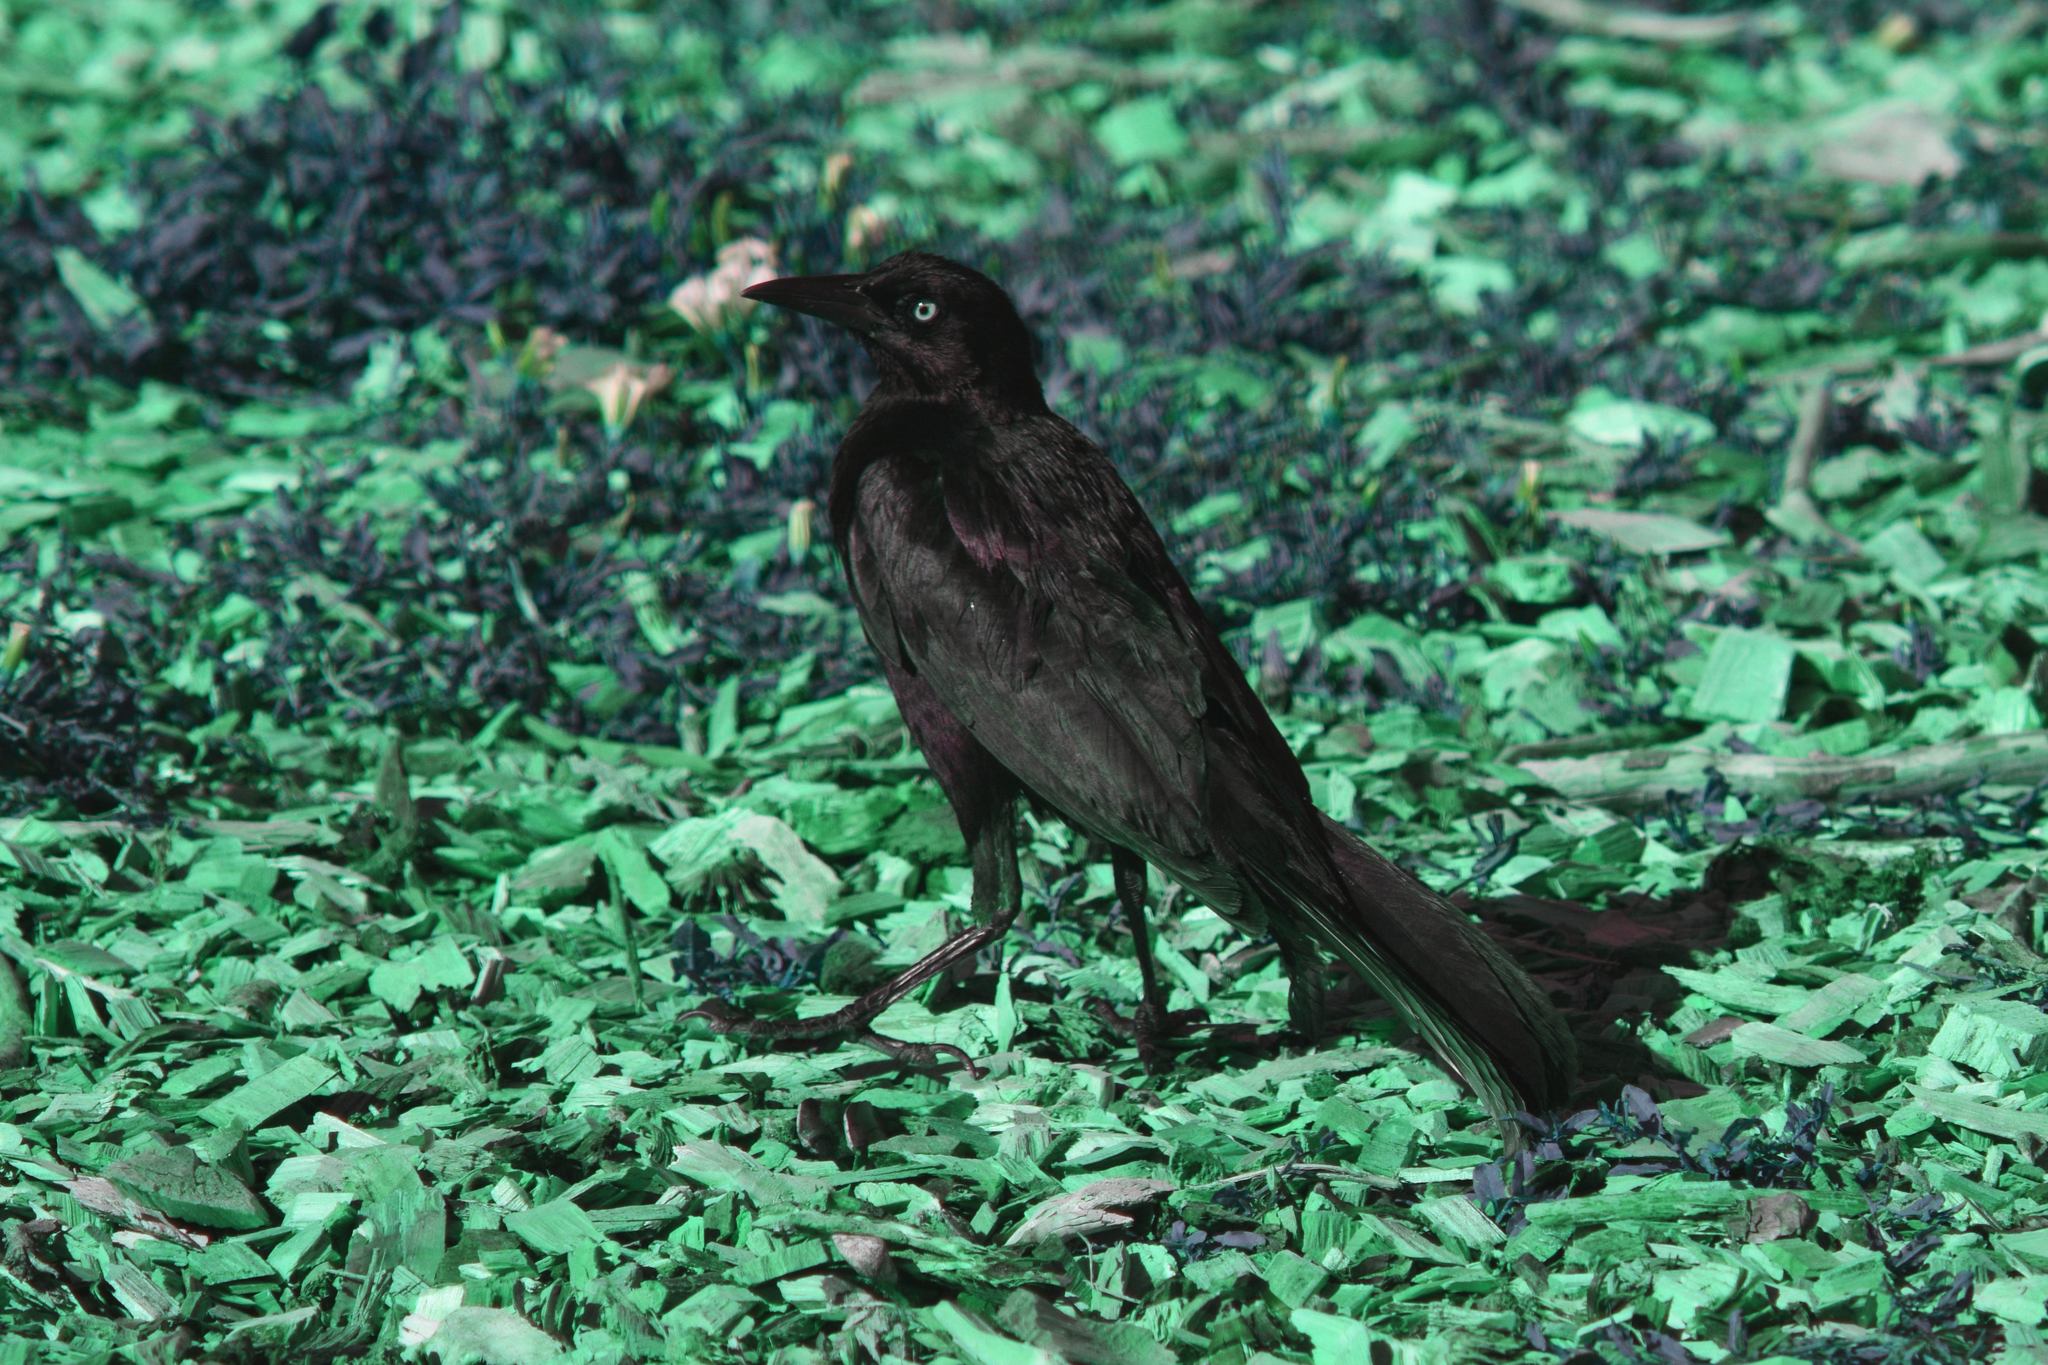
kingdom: Animalia
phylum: Chordata
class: Aves
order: Passeriformes
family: Icteridae
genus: Quiscalus
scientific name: Quiscalus mexicanus
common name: Great-tailed grackle
